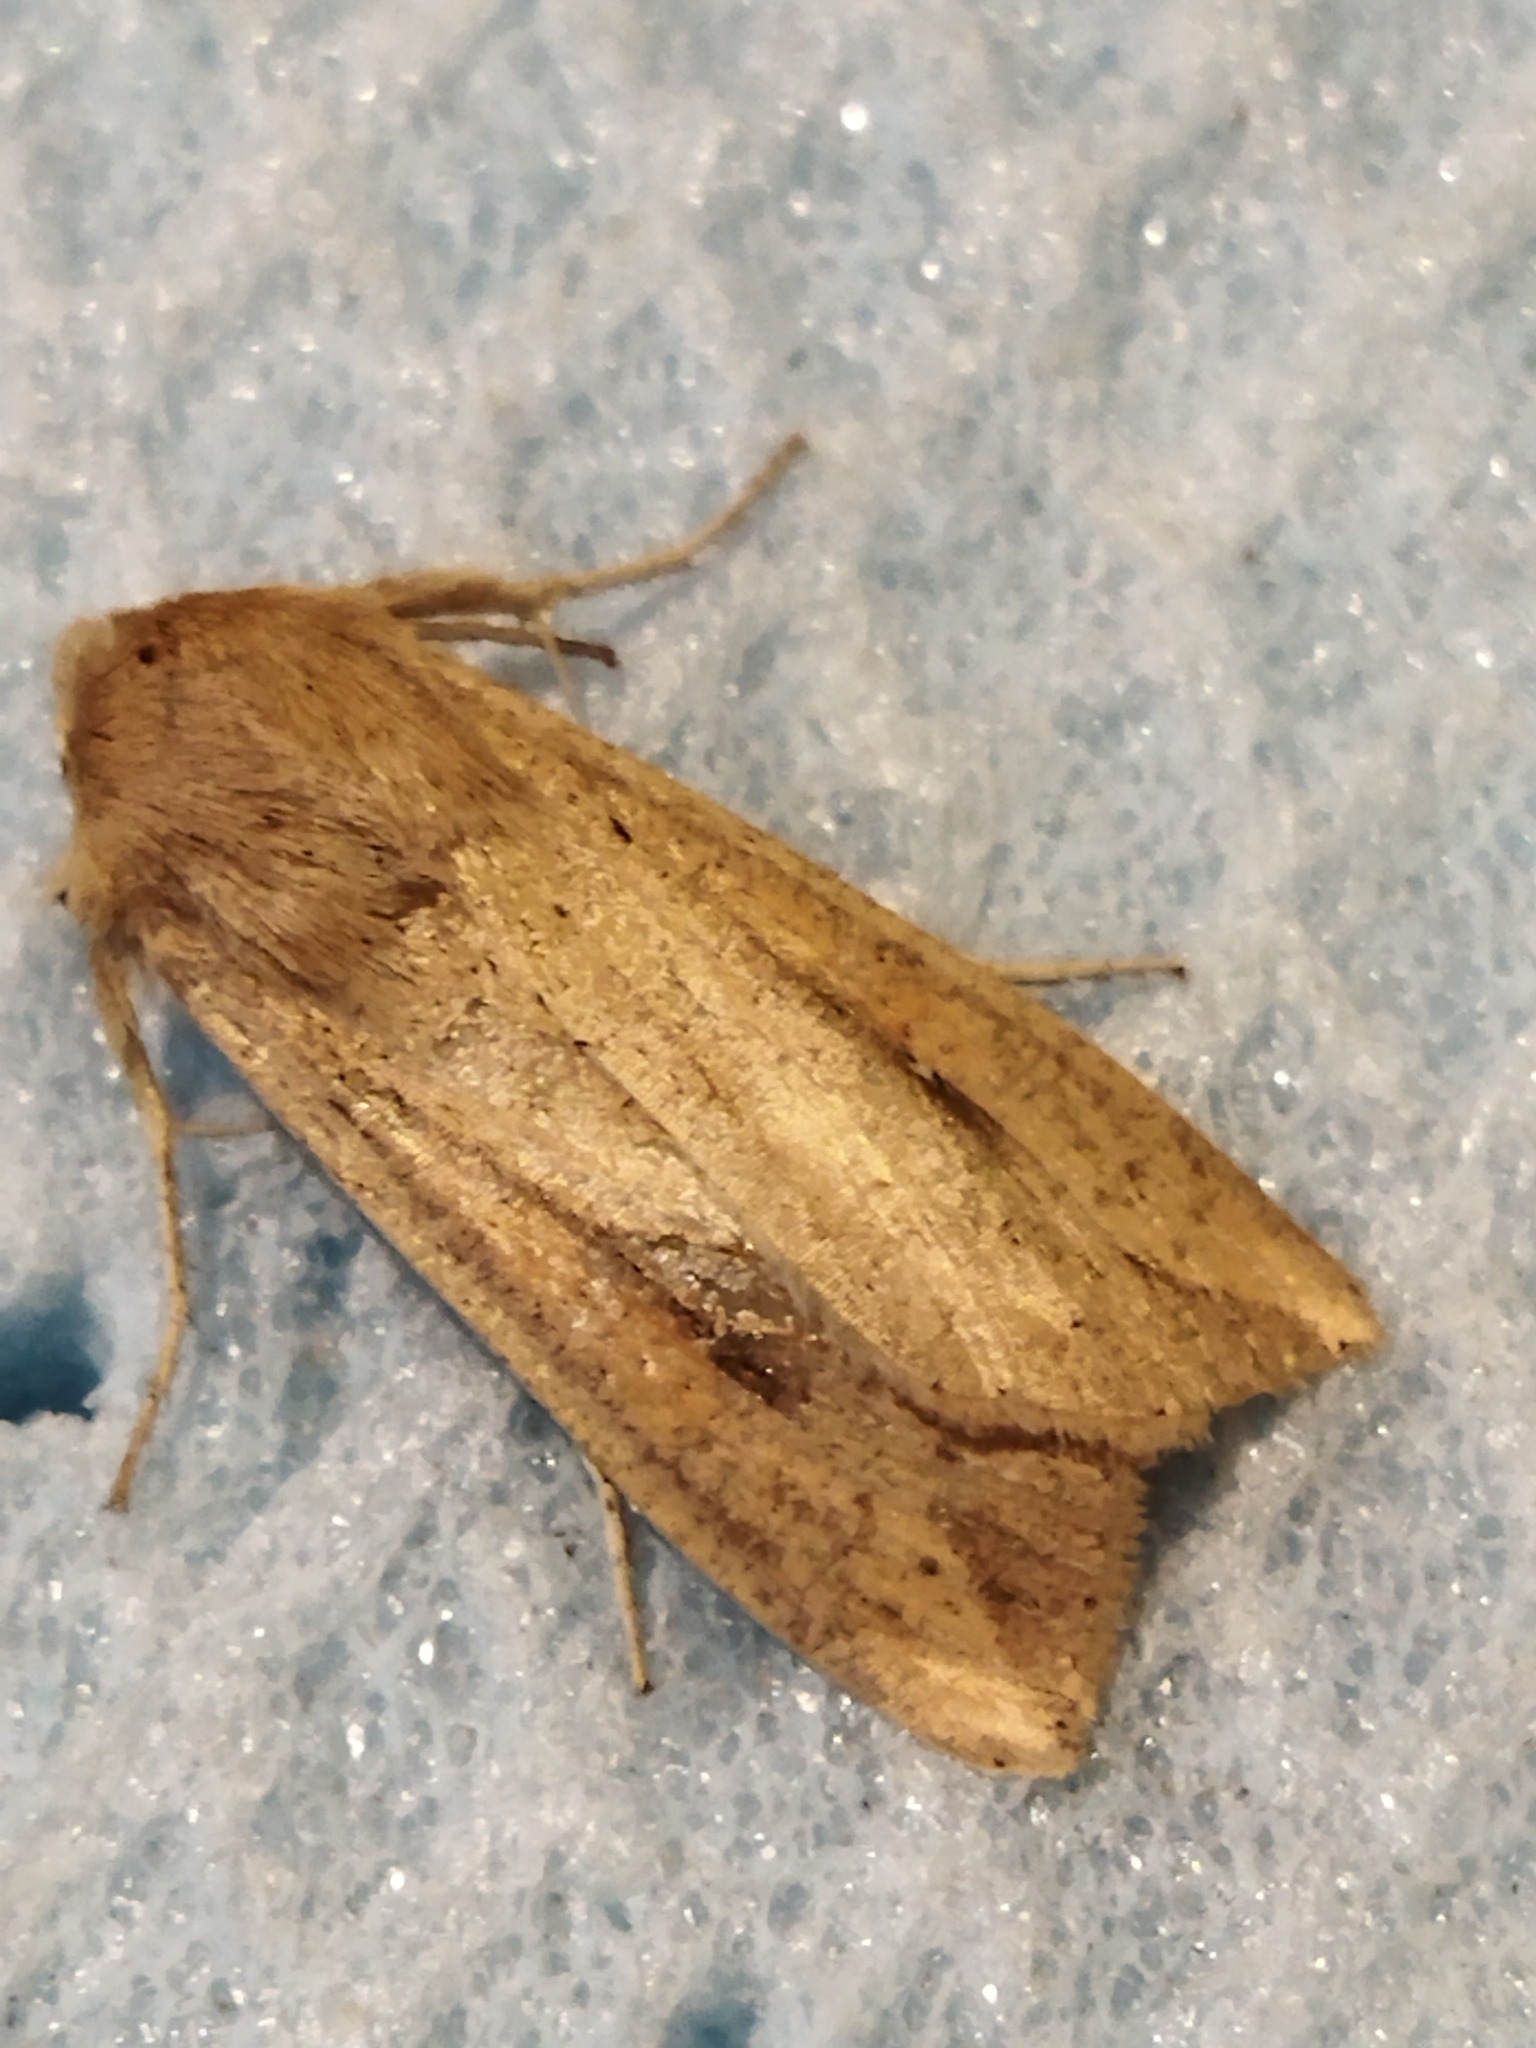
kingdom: Animalia
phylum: Arthropoda
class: Insecta
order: Lepidoptera
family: Noctuidae
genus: Mythimna
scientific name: Mythimna unipuncta
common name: White-speck
